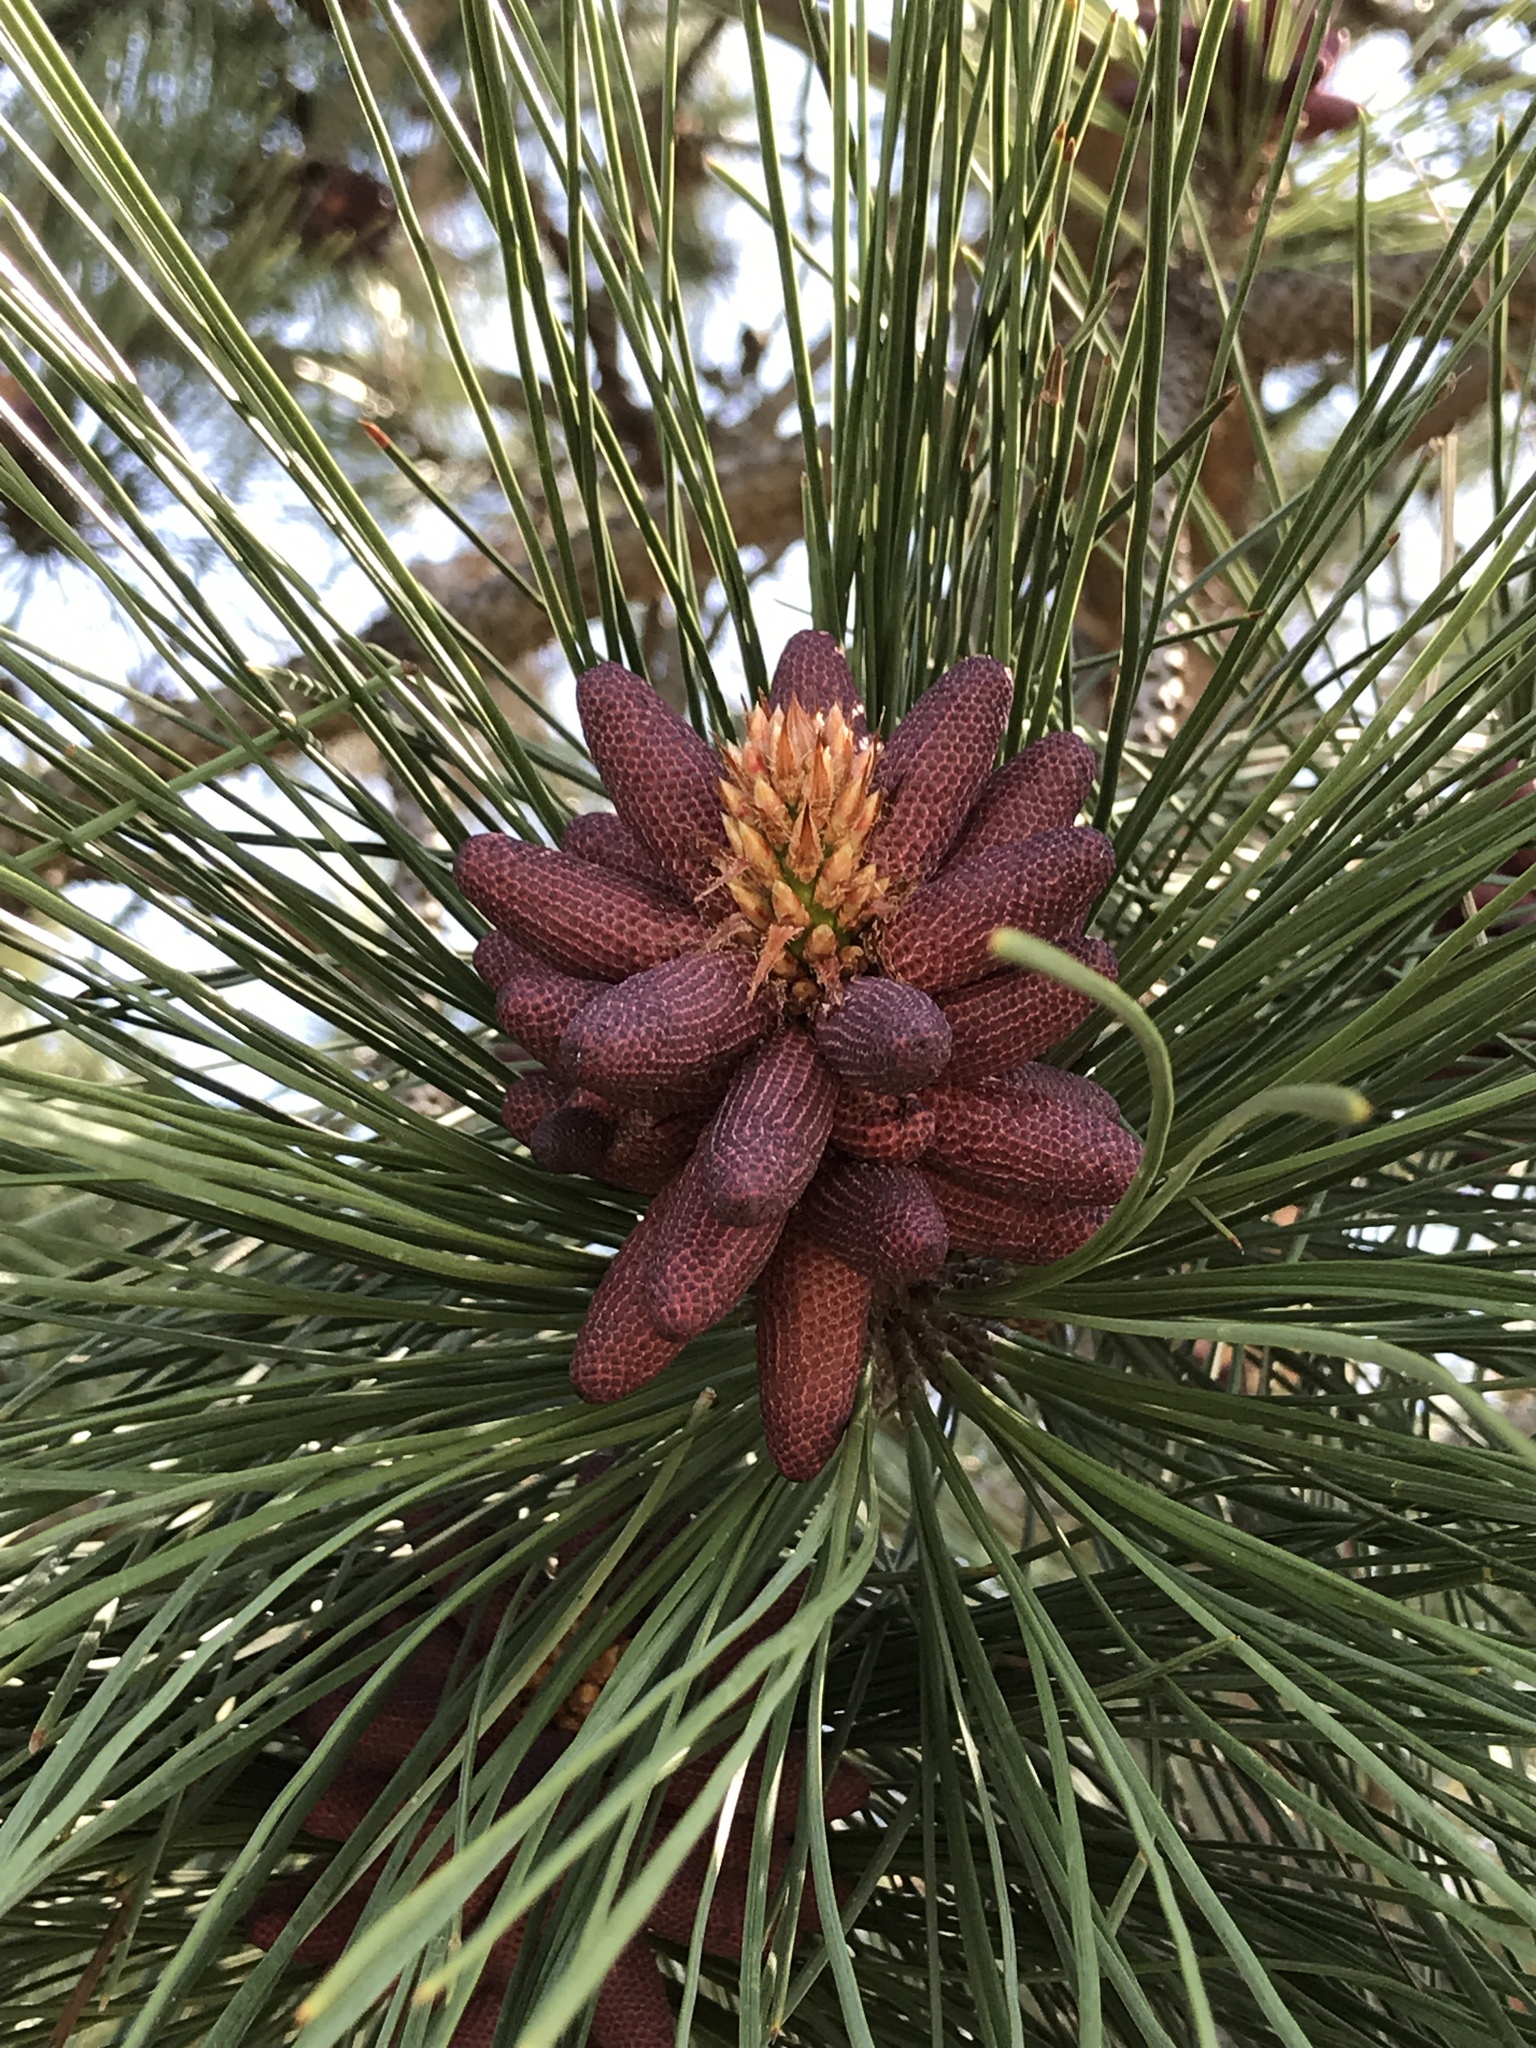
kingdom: Plantae
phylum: Tracheophyta
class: Pinopsida
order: Pinales
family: Pinaceae
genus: Pinus
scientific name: Pinus ponderosa
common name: Western yellow-pine
